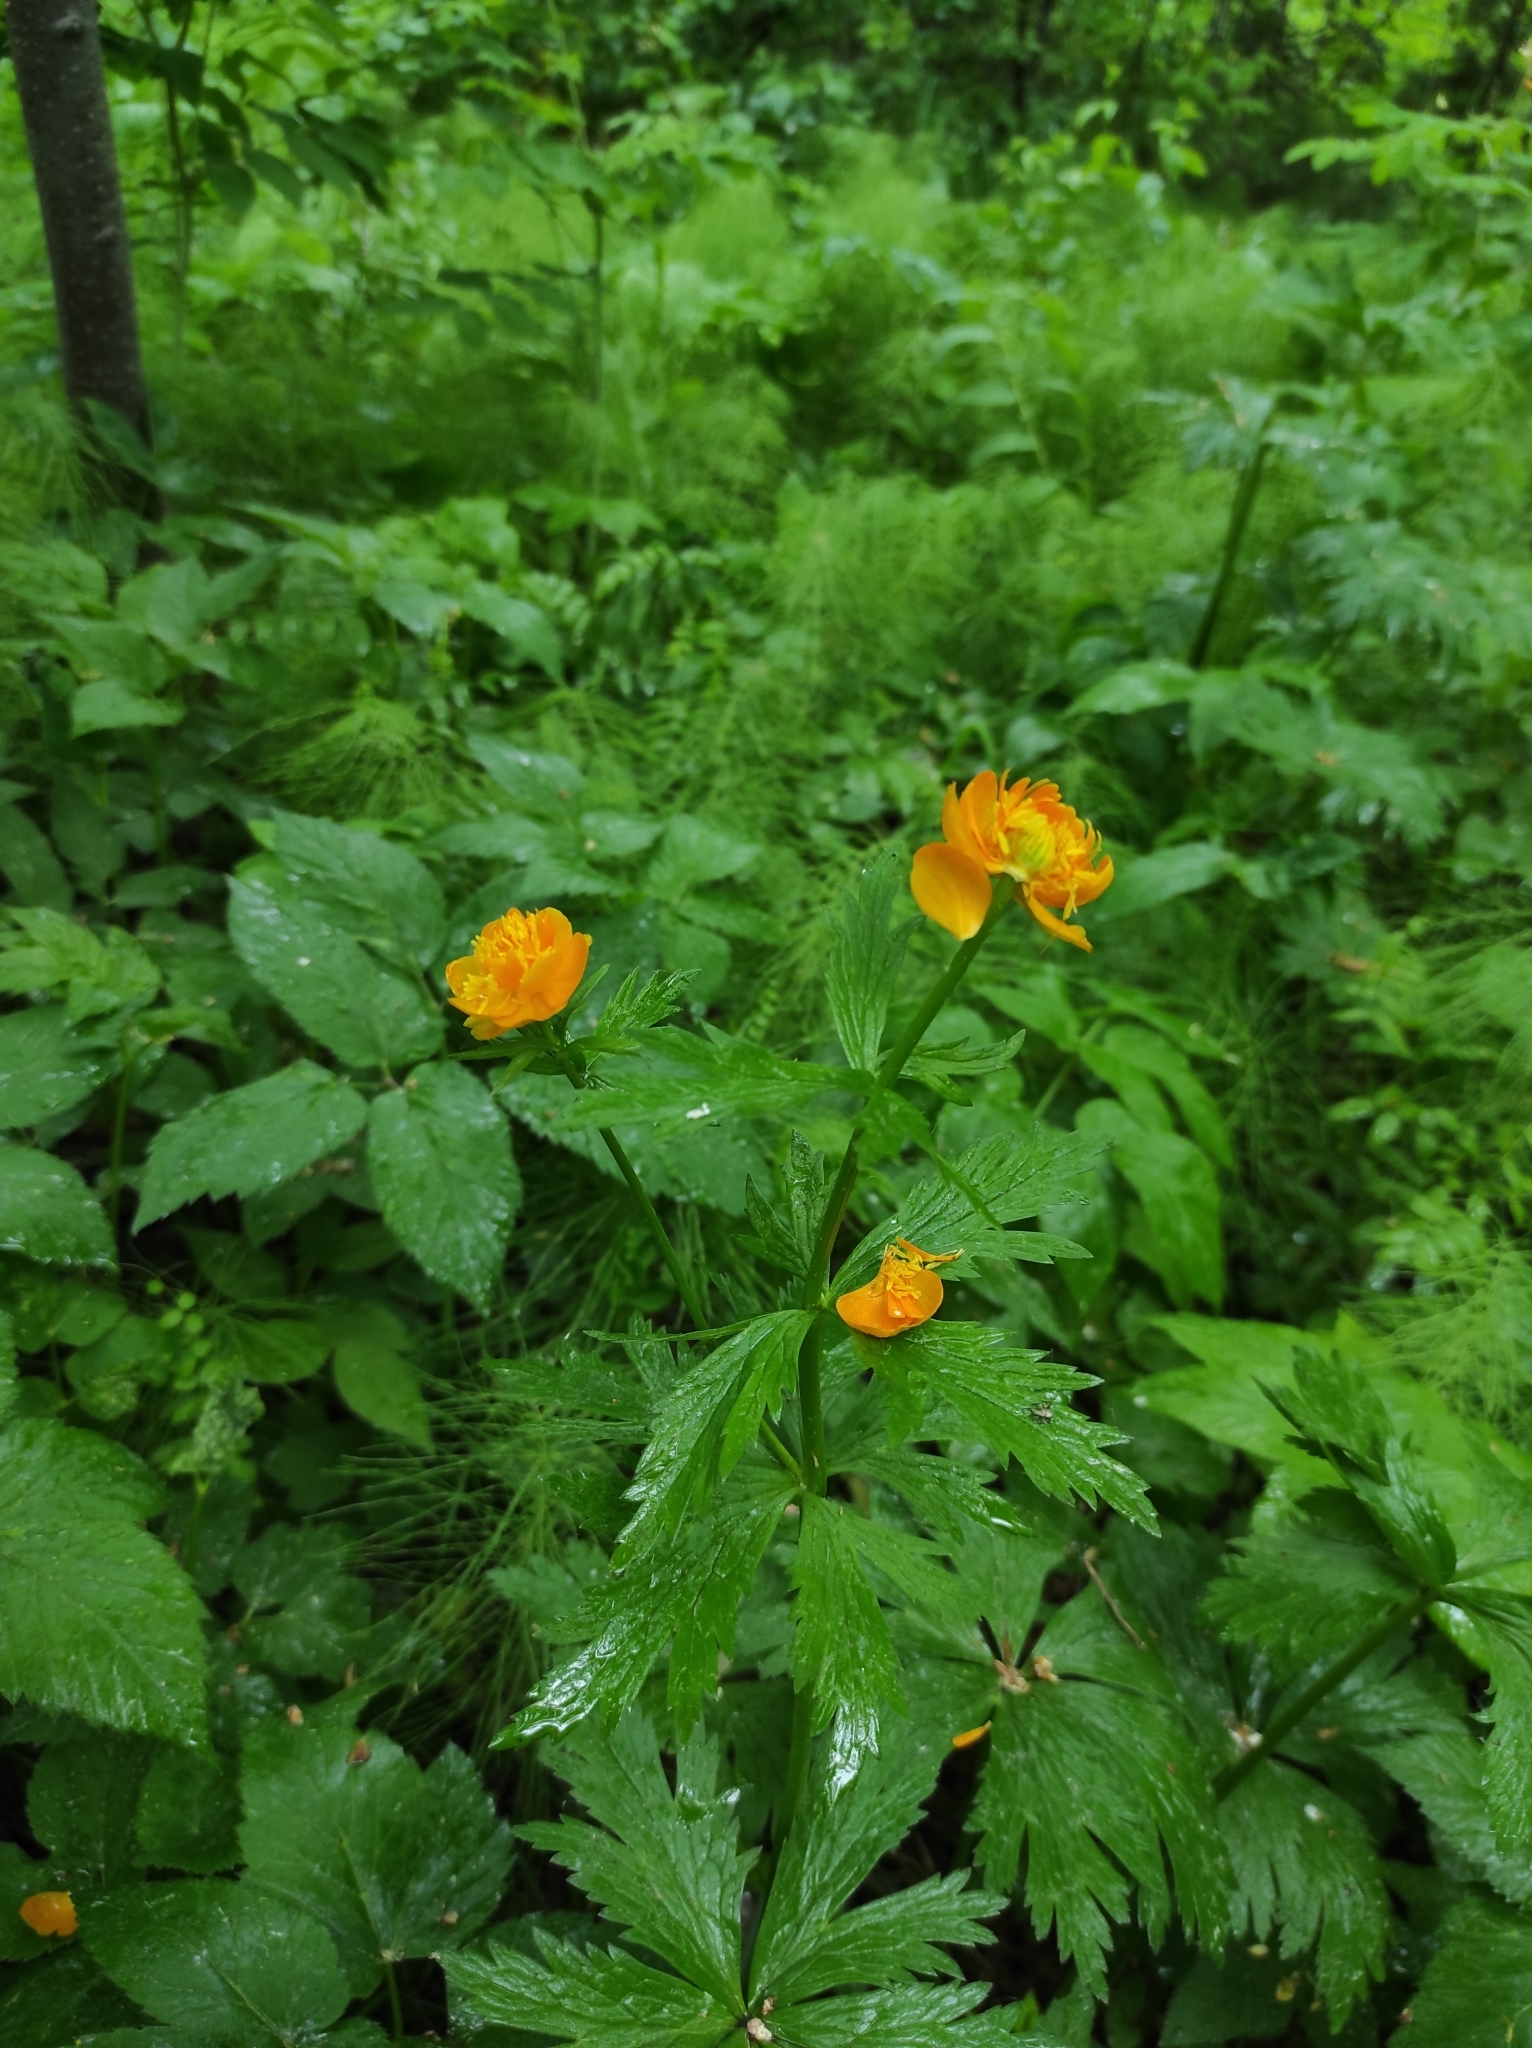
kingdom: Plantae
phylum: Tracheophyta
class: Magnoliopsida
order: Ranunculales
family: Ranunculaceae
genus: Trollius
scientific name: Trollius asiaticus
